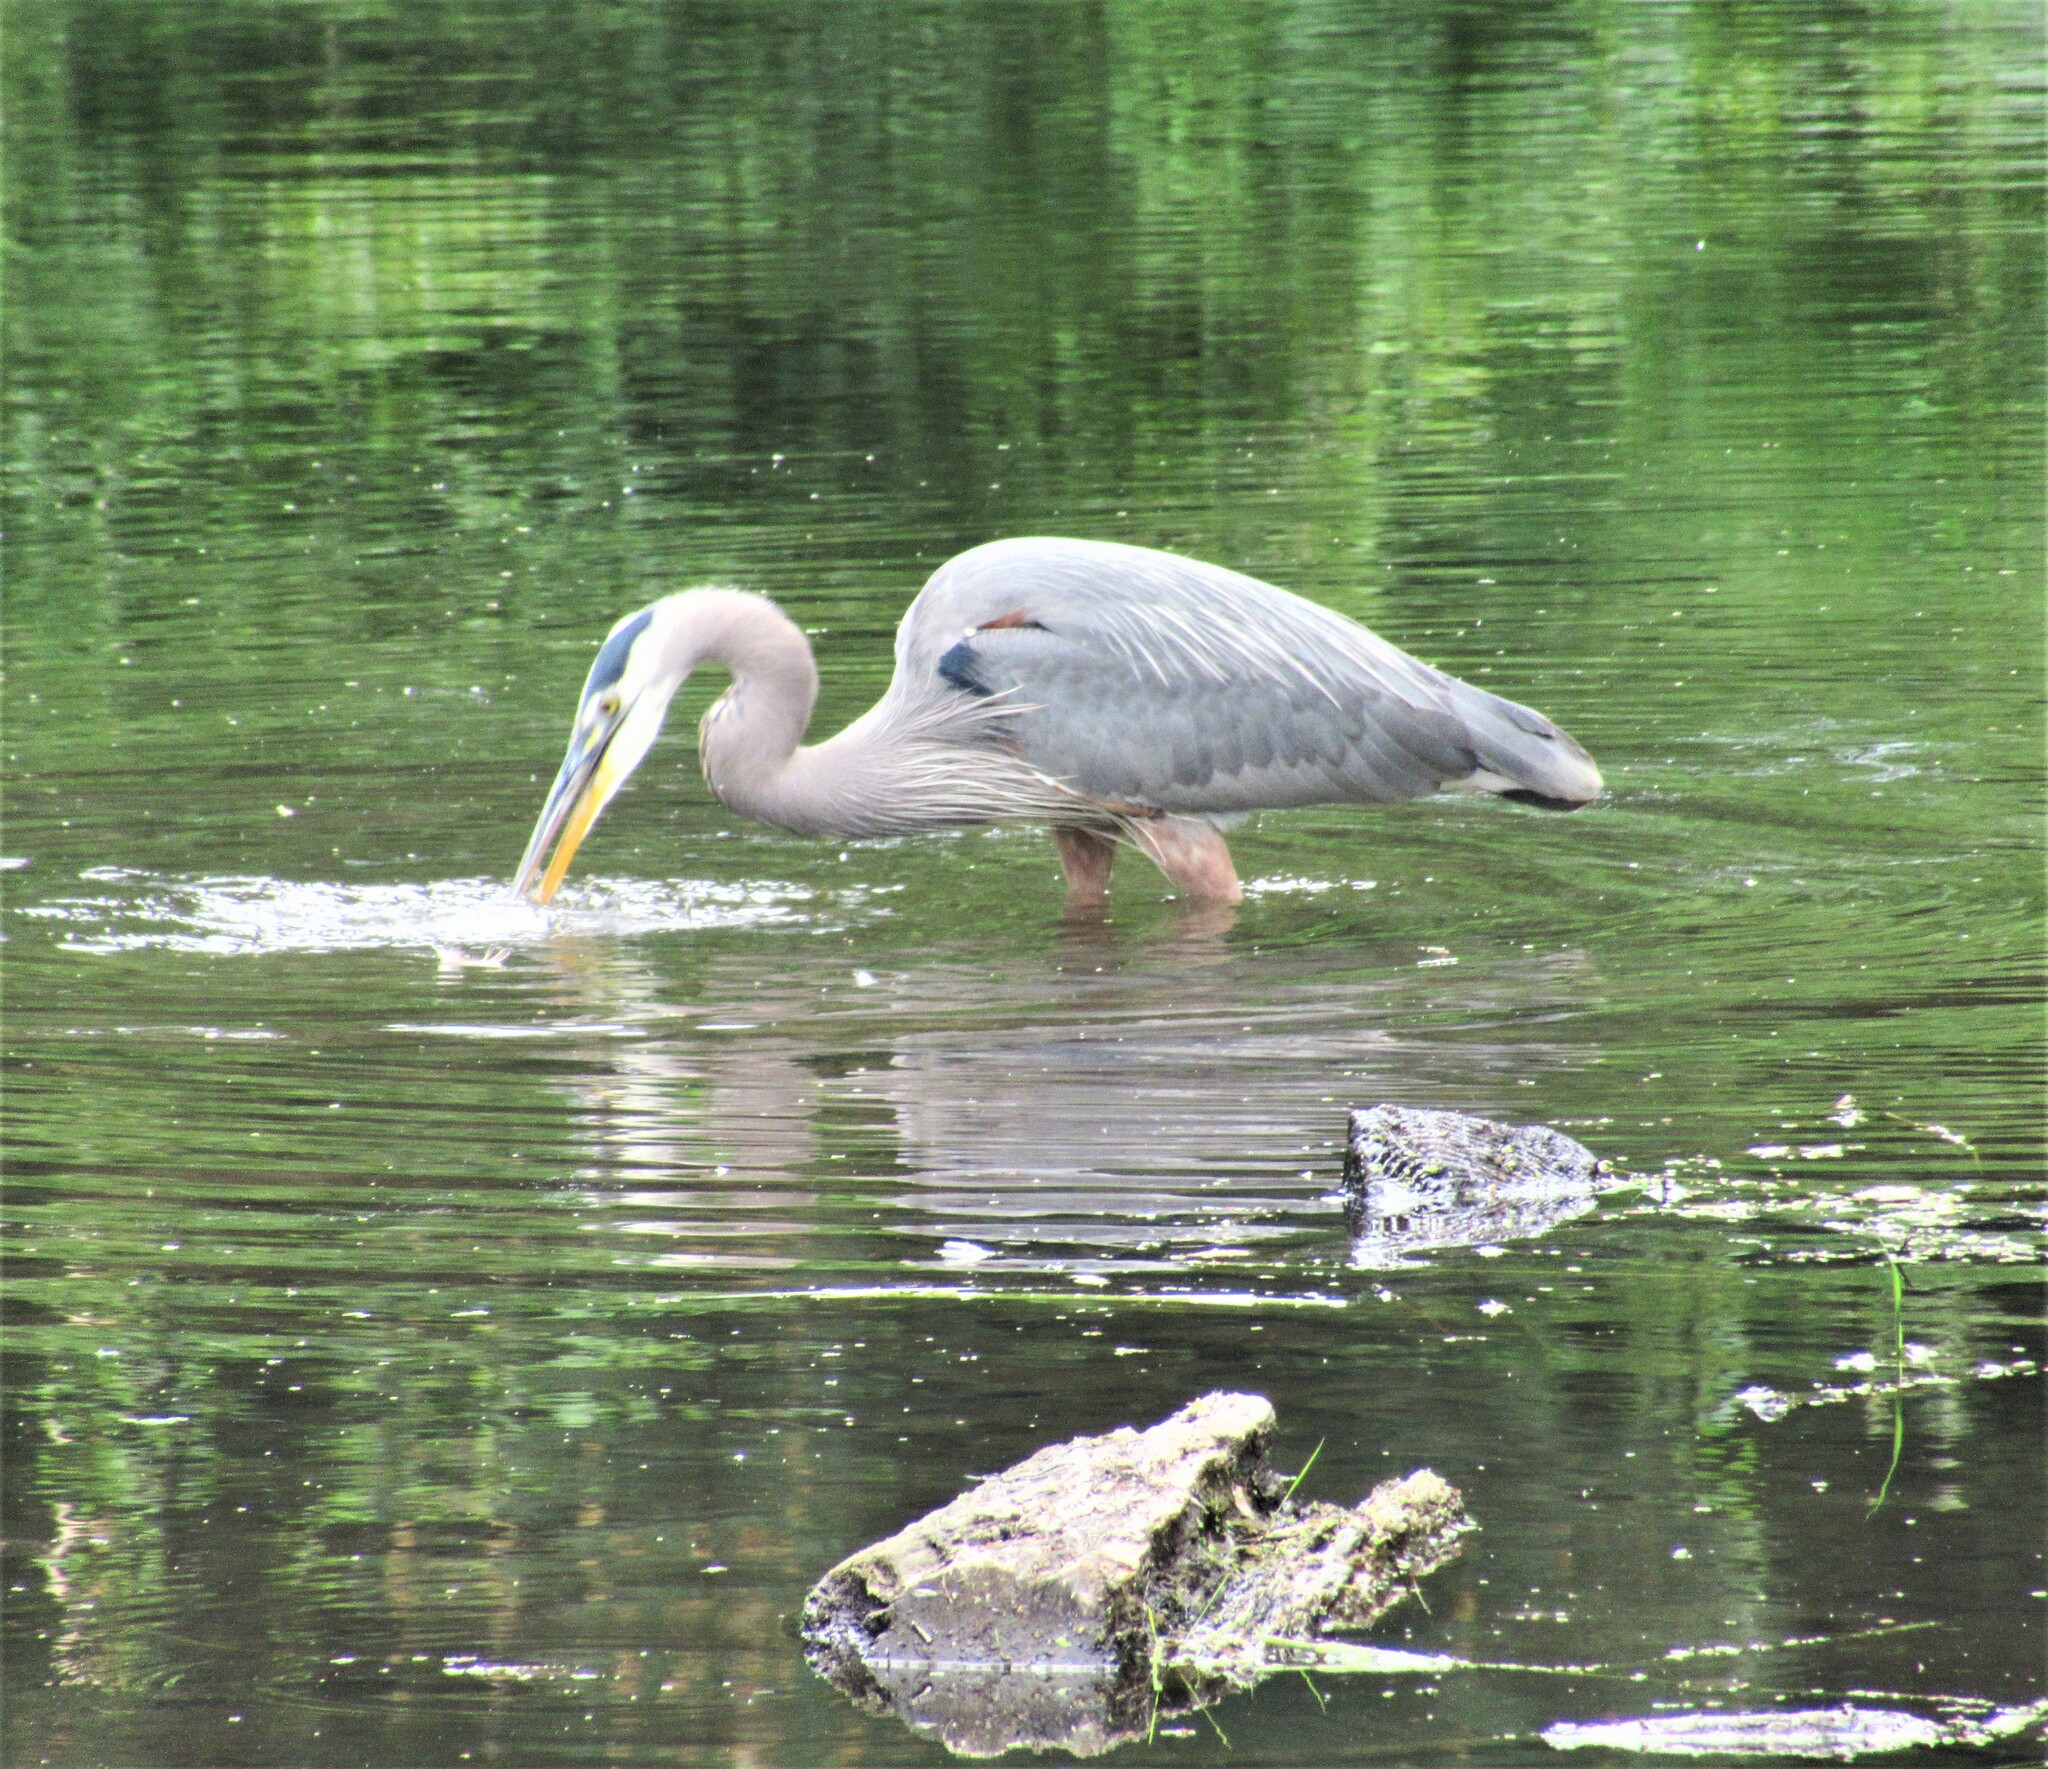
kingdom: Animalia
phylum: Chordata
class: Aves
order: Pelecaniformes
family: Ardeidae
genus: Ardea
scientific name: Ardea herodias
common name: Great blue heron
